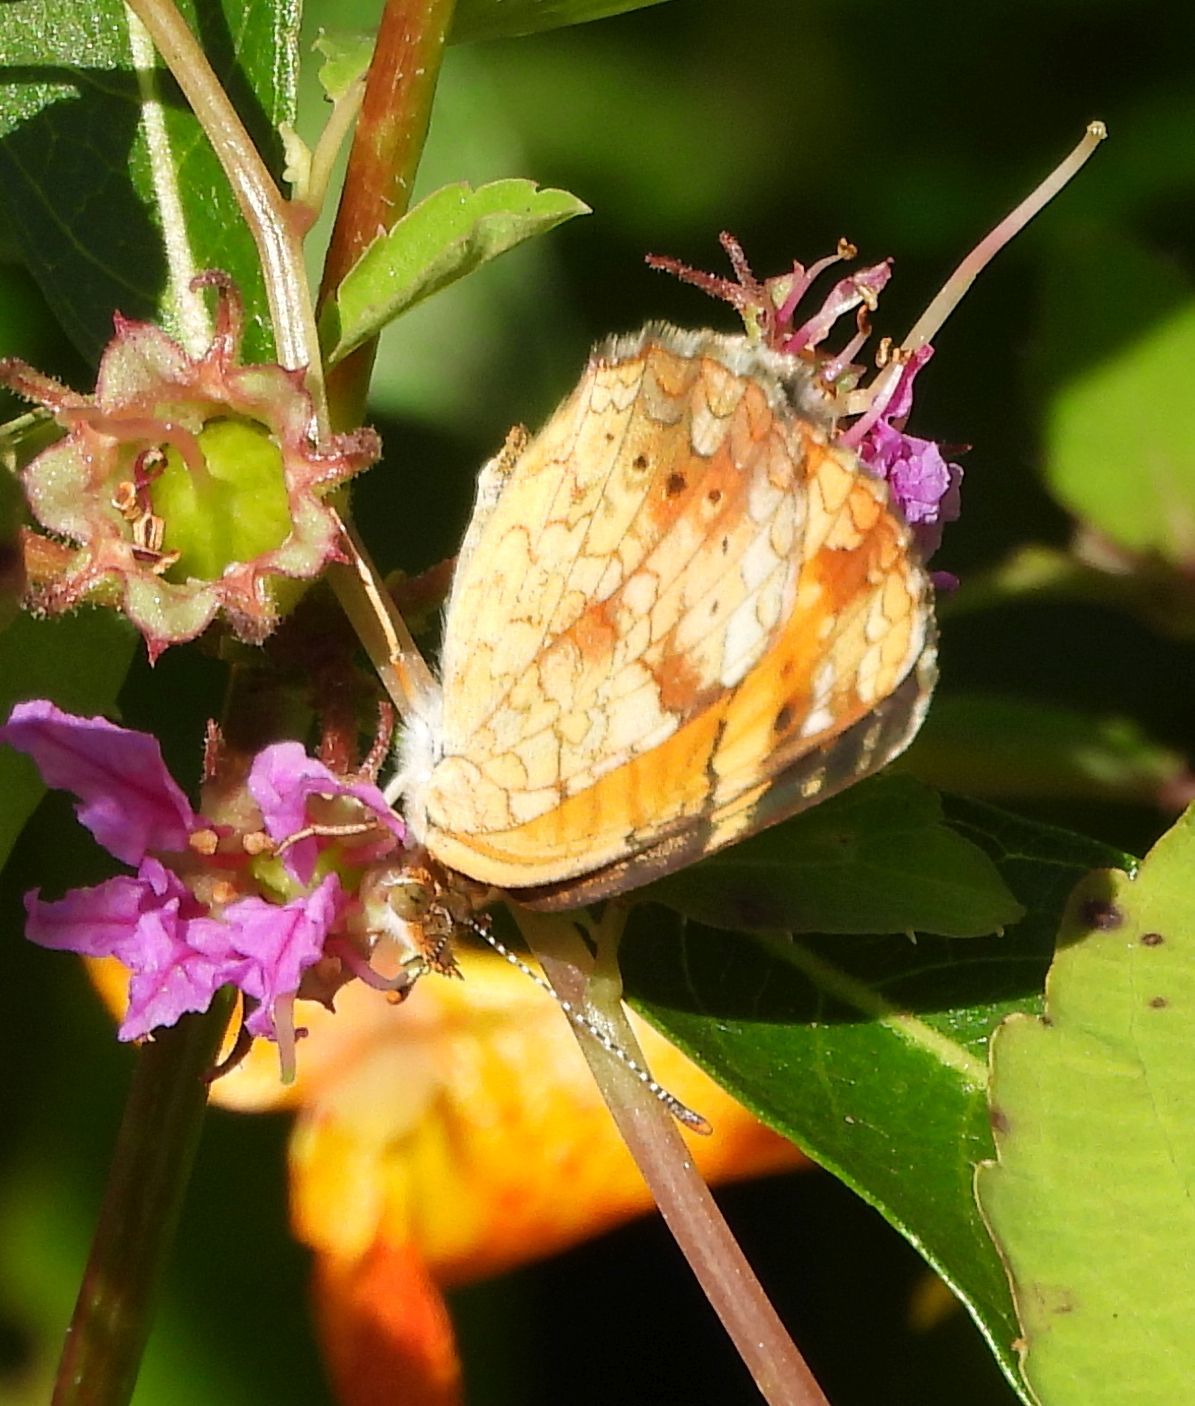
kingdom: Animalia
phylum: Arthropoda
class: Insecta
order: Lepidoptera
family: Nymphalidae
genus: Phyciodes
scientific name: Phyciodes tharos
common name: Pearl crescent
